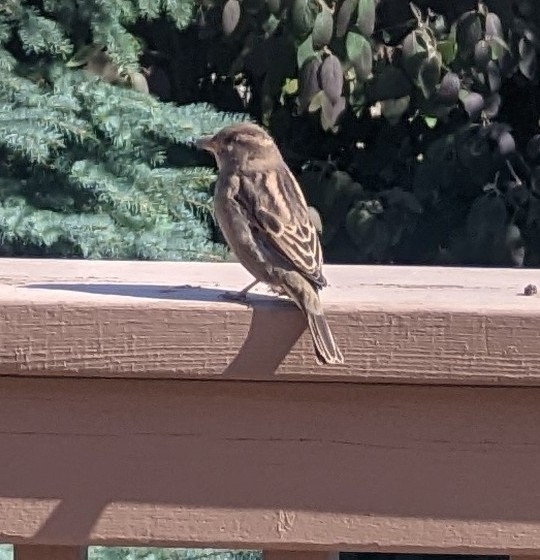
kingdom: Animalia
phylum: Chordata
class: Aves
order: Passeriformes
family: Passeridae
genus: Passer
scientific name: Passer domesticus
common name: House sparrow
